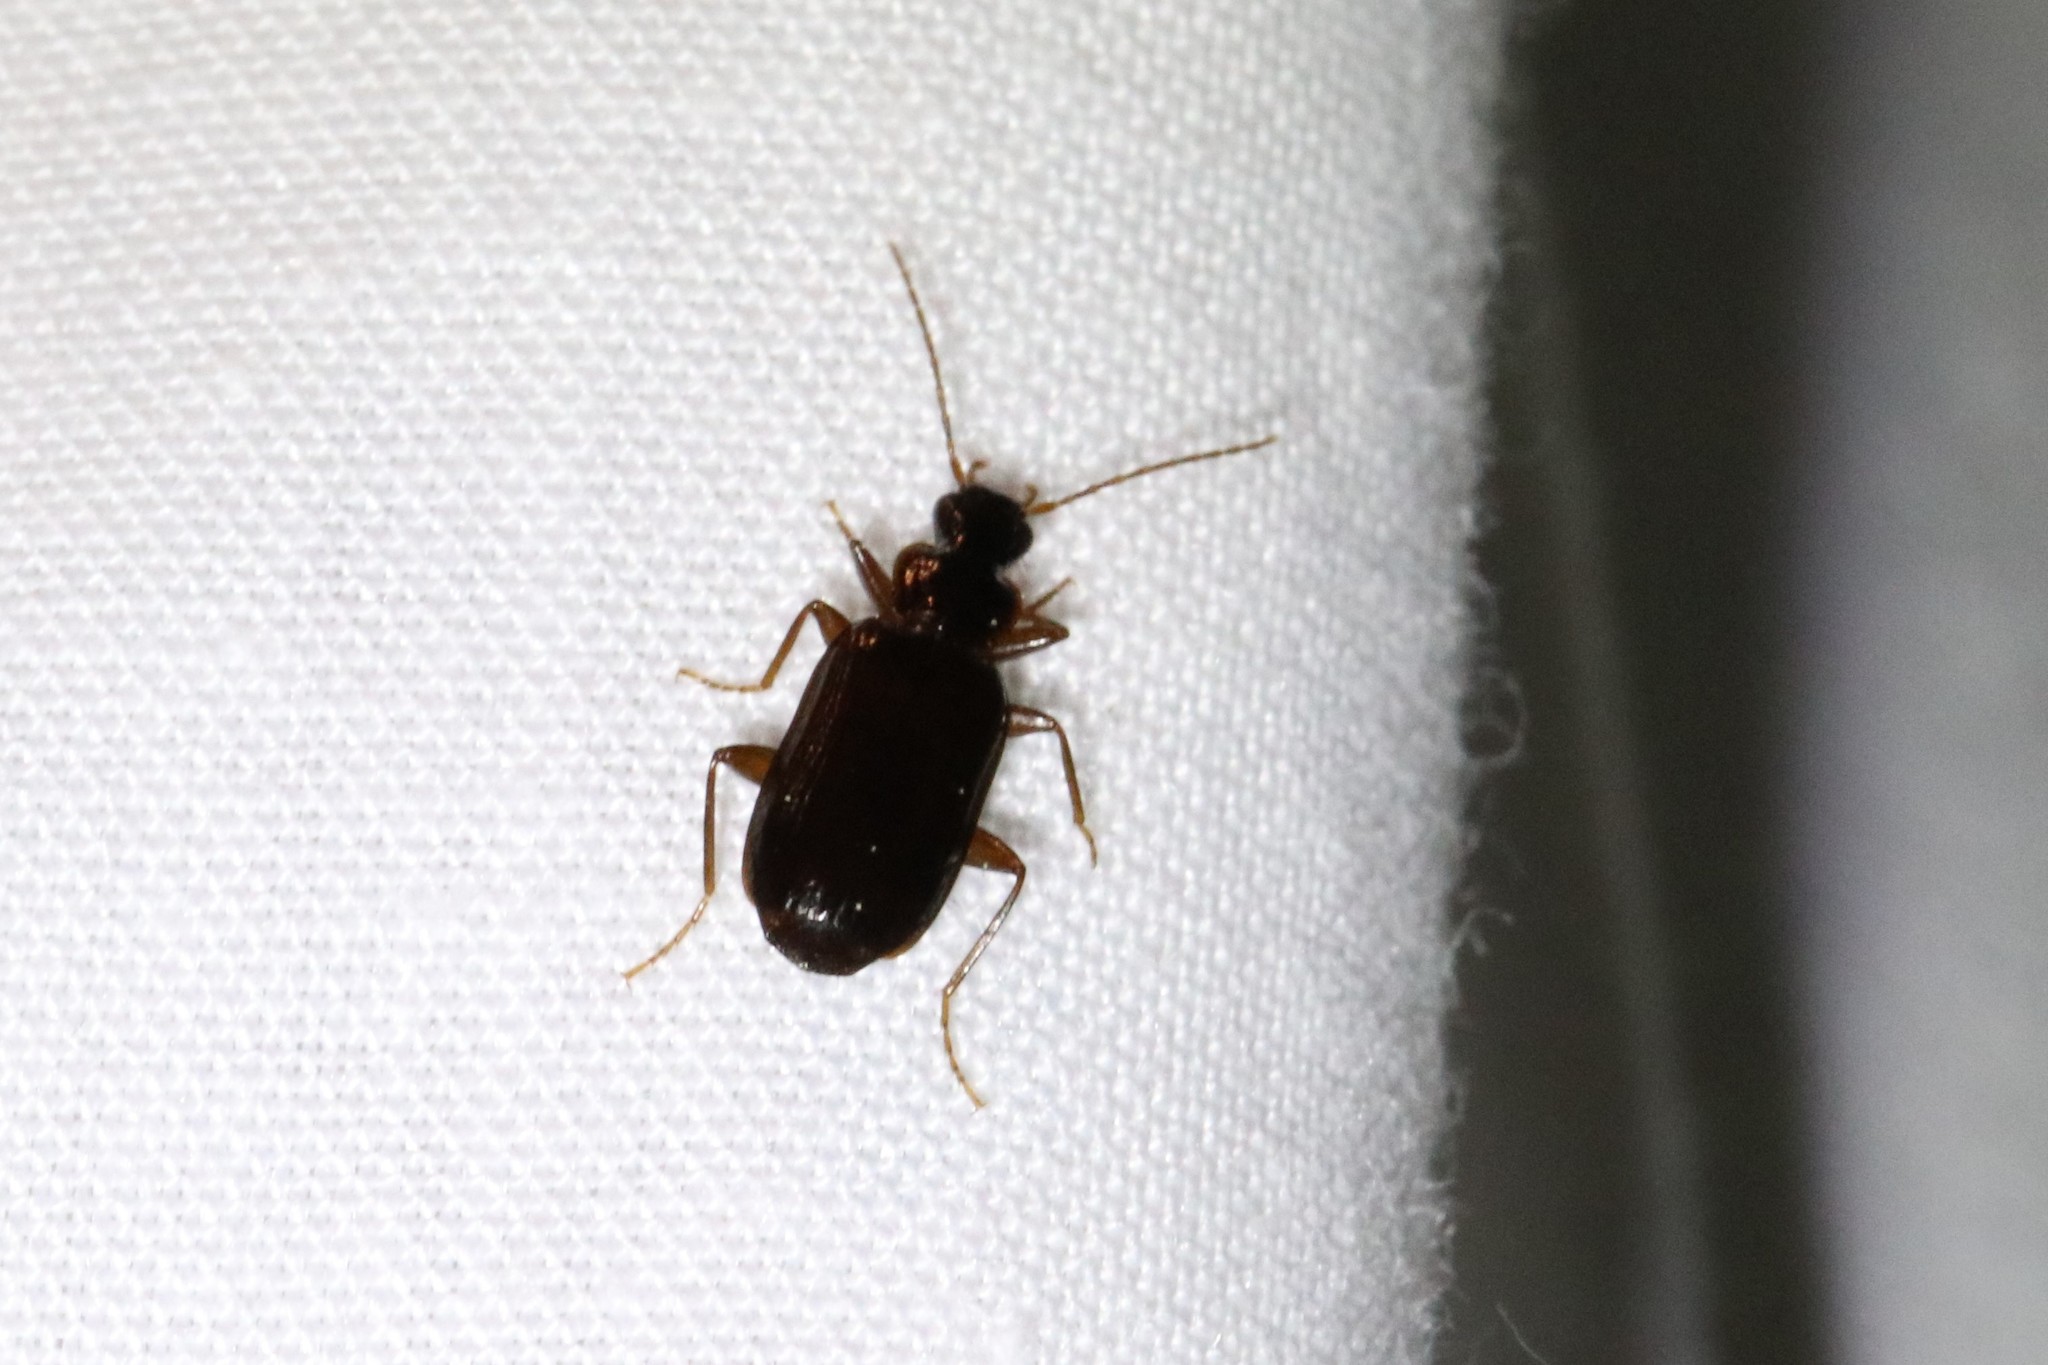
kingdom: Animalia
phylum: Arthropoda
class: Insecta
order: Coleoptera
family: Carabidae
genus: Dromius
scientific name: Dromius piceus
